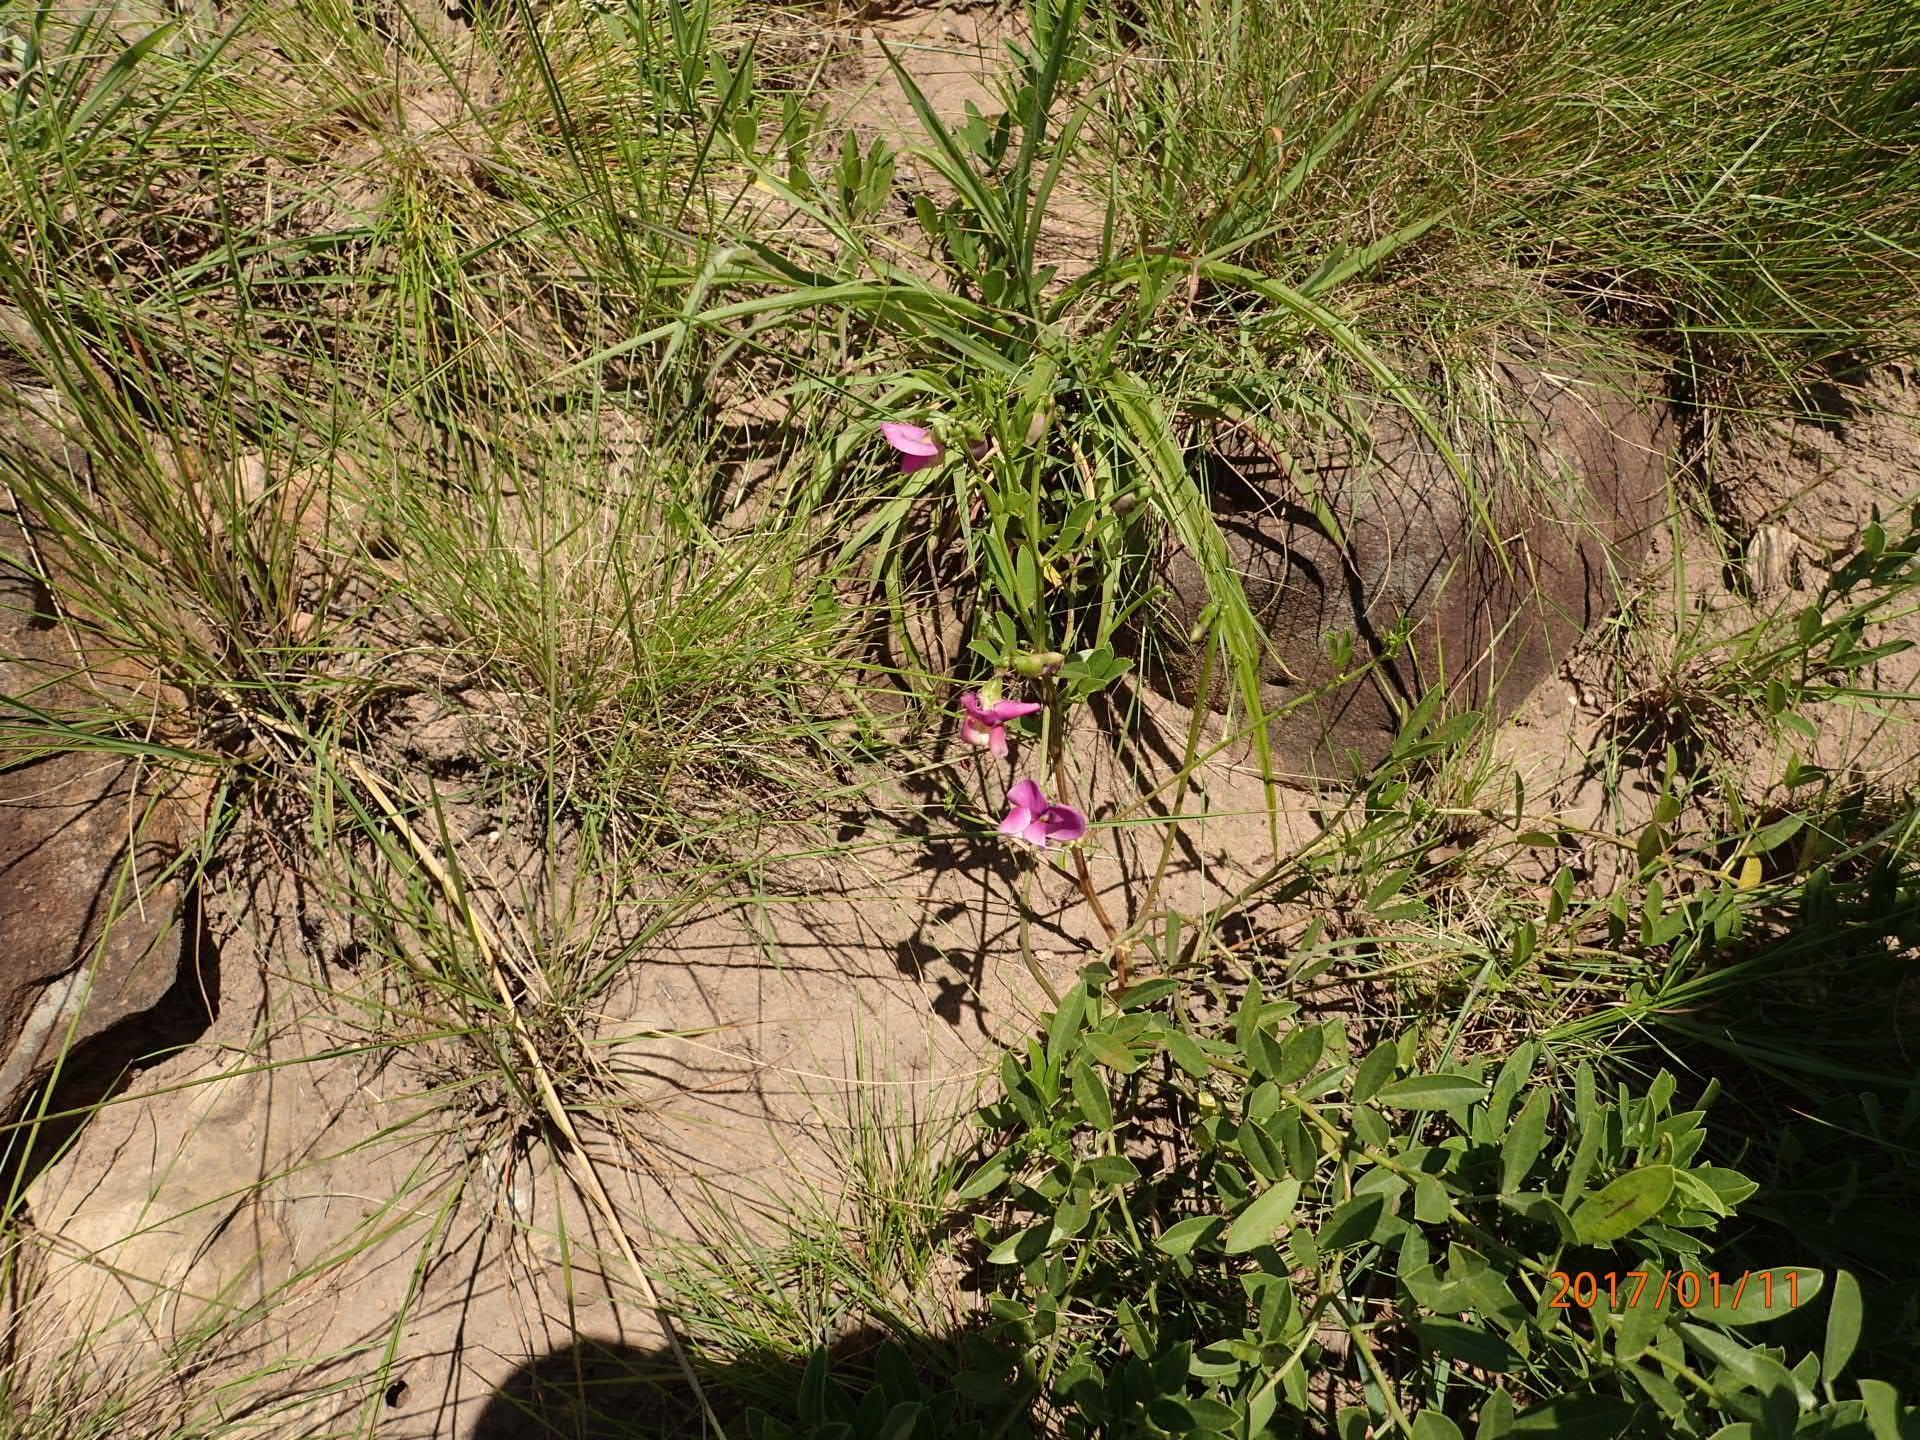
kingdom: Plantae
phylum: Tracheophyta
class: Magnoliopsida
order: Fabales
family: Fabaceae
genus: Vigna
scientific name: Vigna vexillata
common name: Zombi pea
